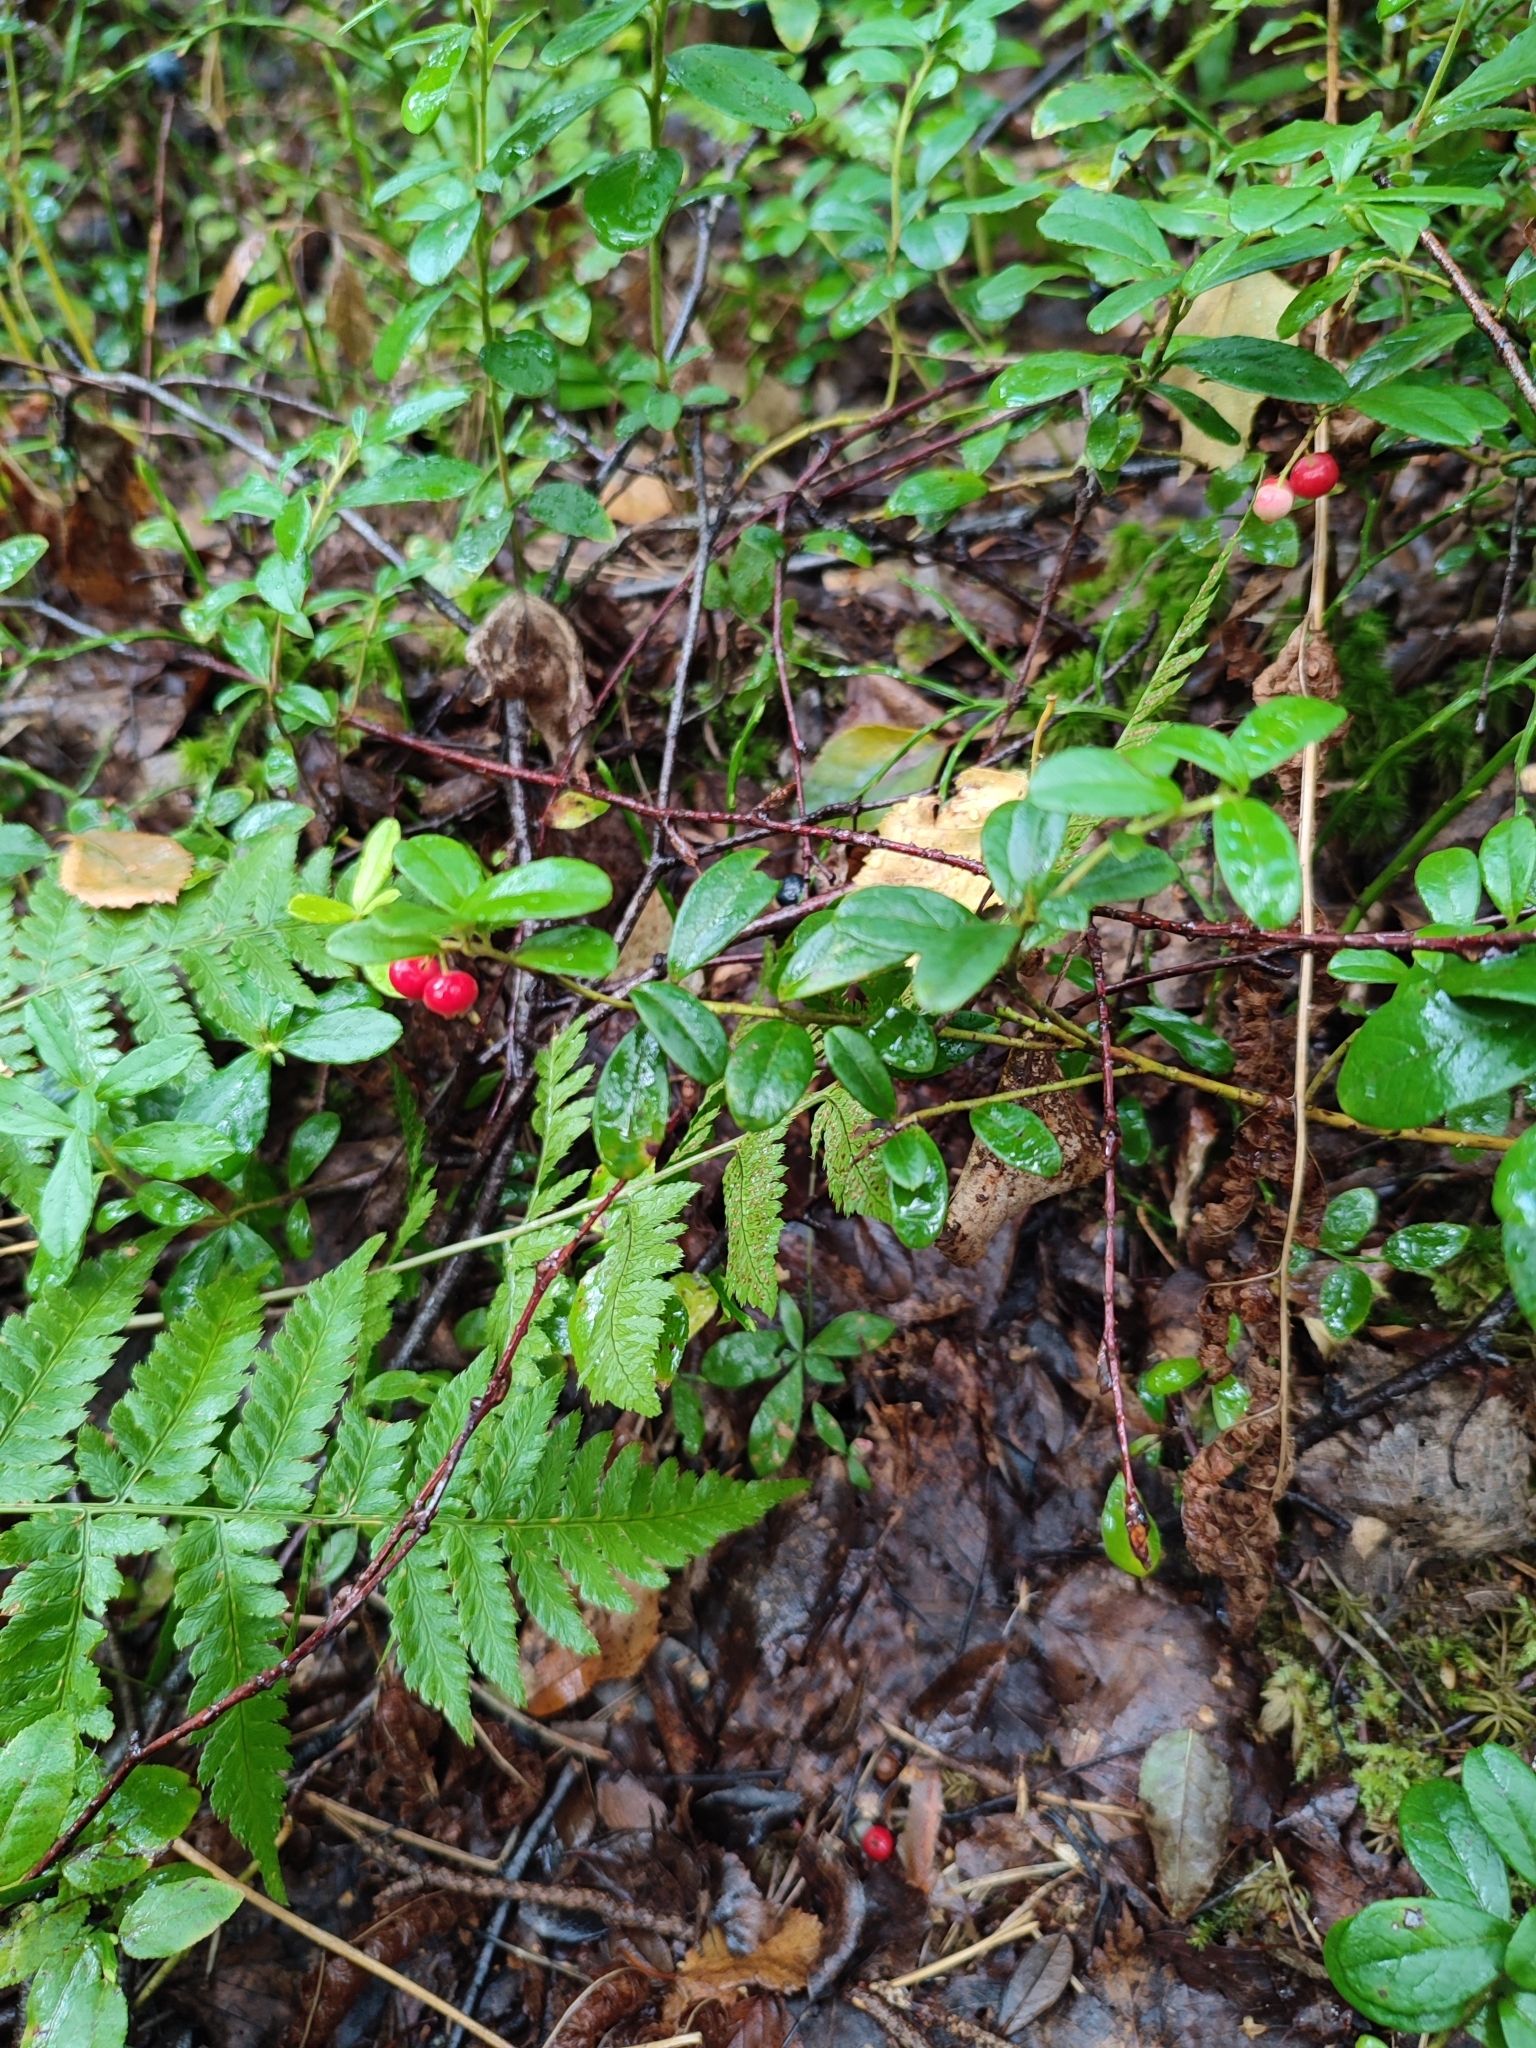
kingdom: Plantae
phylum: Tracheophyta
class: Magnoliopsida
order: Ericales
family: Ericaceae
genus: Vaccinium
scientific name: Vaccinium vitis-idaea
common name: Cowberry
